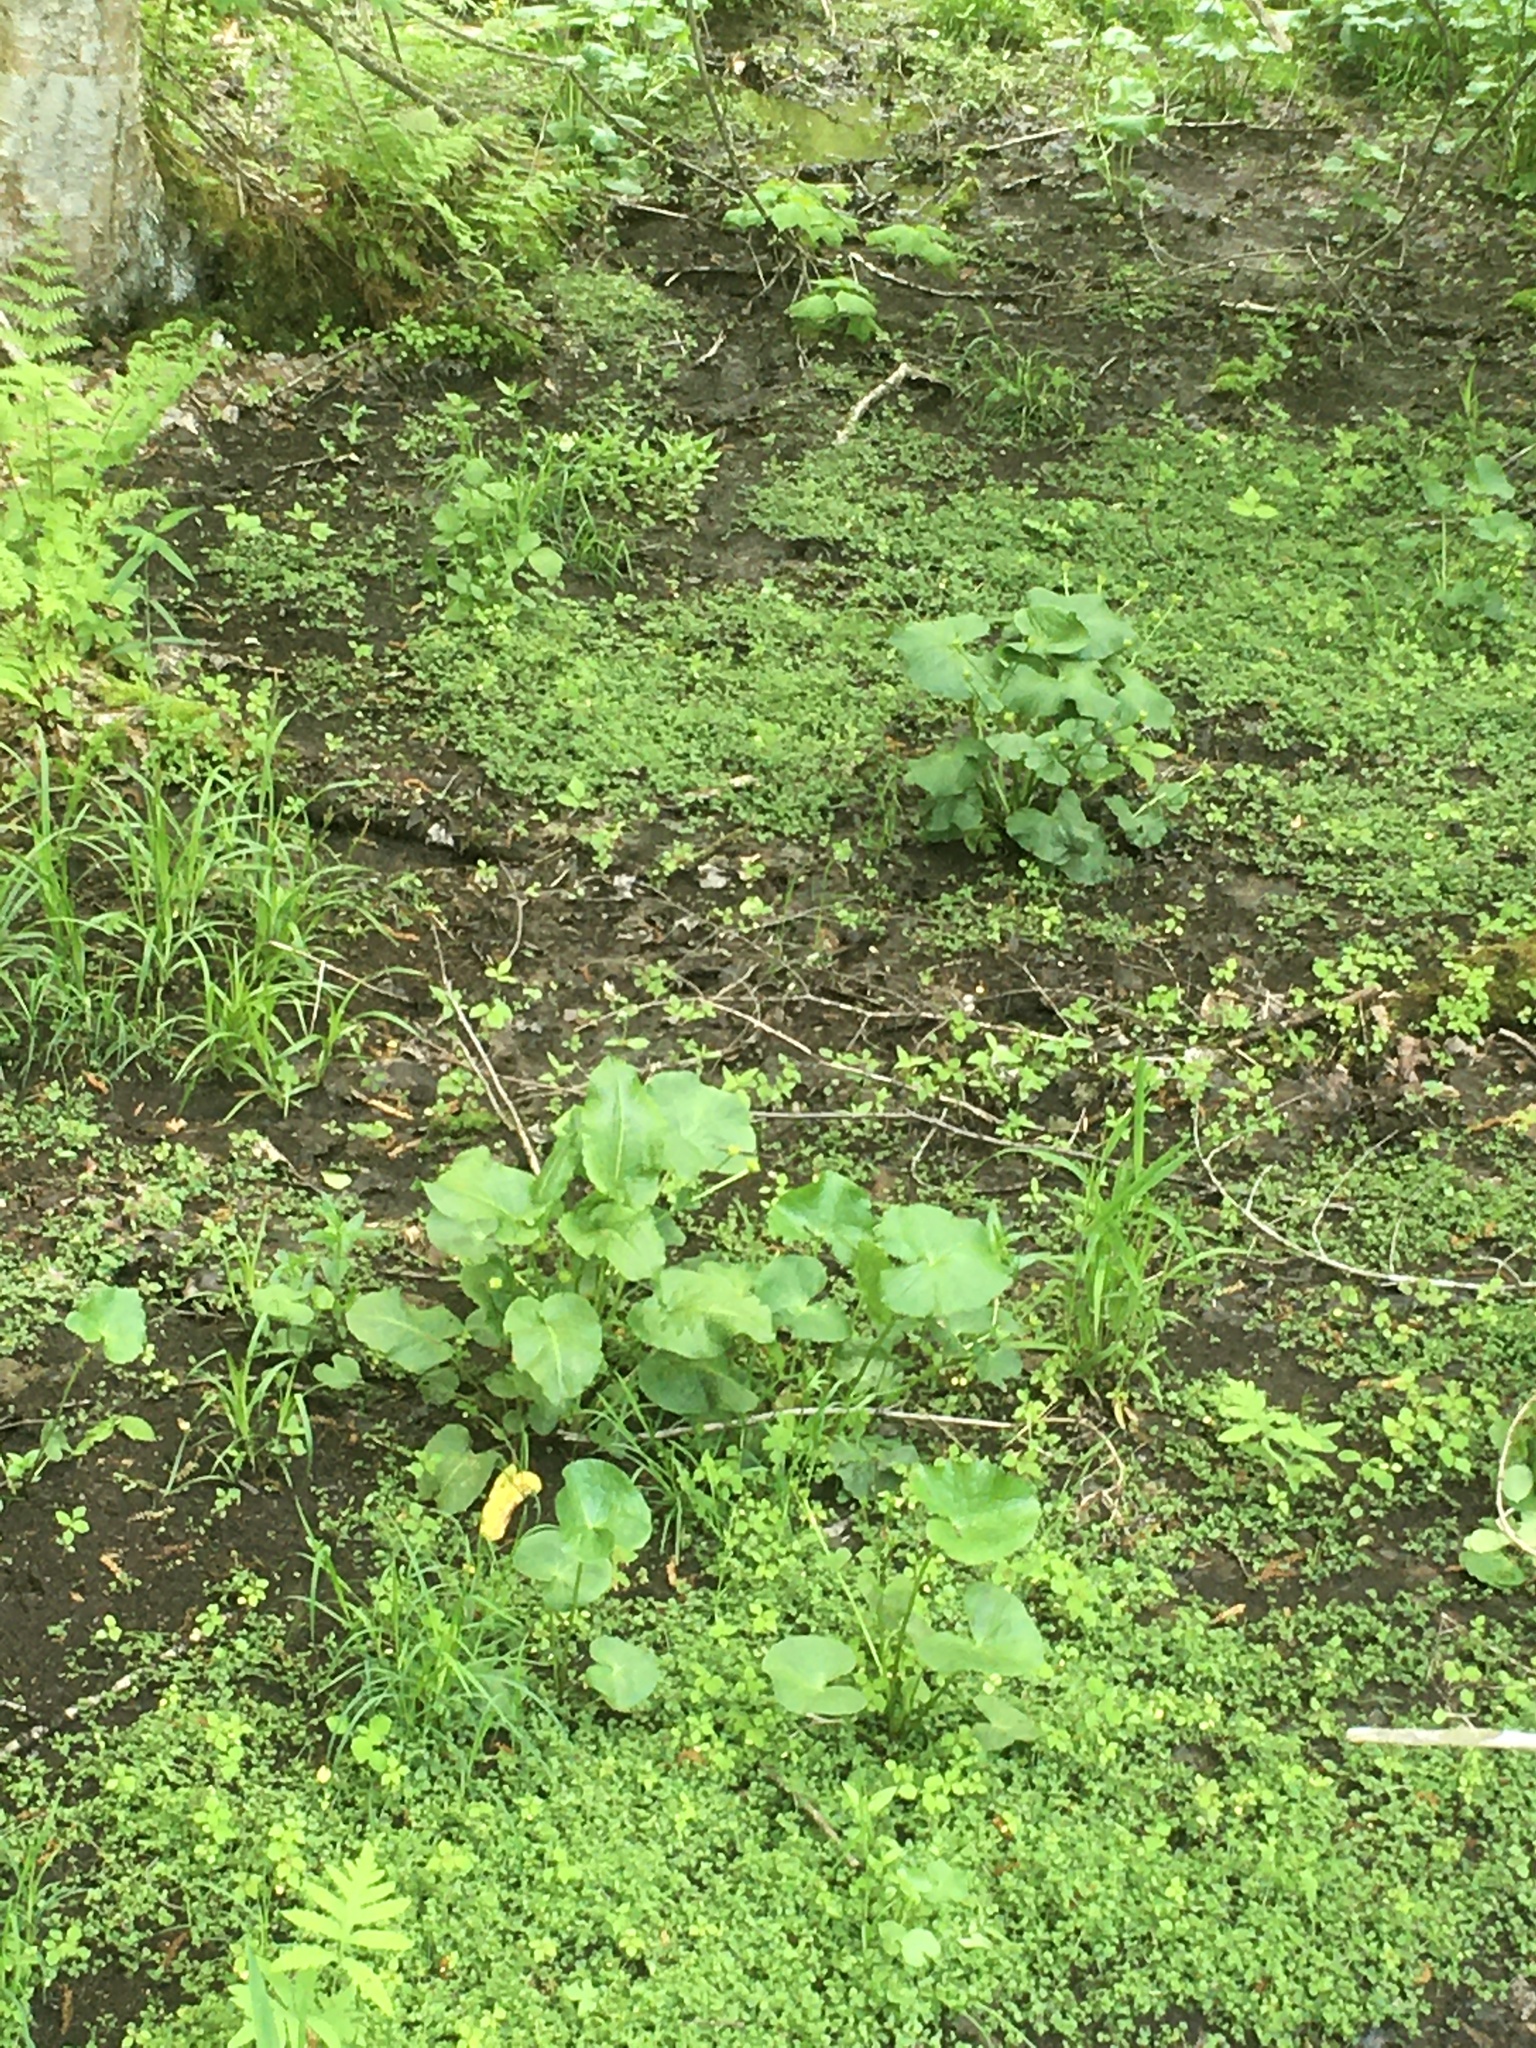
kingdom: Plantae
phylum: Tracheophyta
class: Magnoliopsida
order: Ranunculales
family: Ranunculaceae
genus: Caltha
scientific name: Caltha palustris
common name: Marsh marigold
